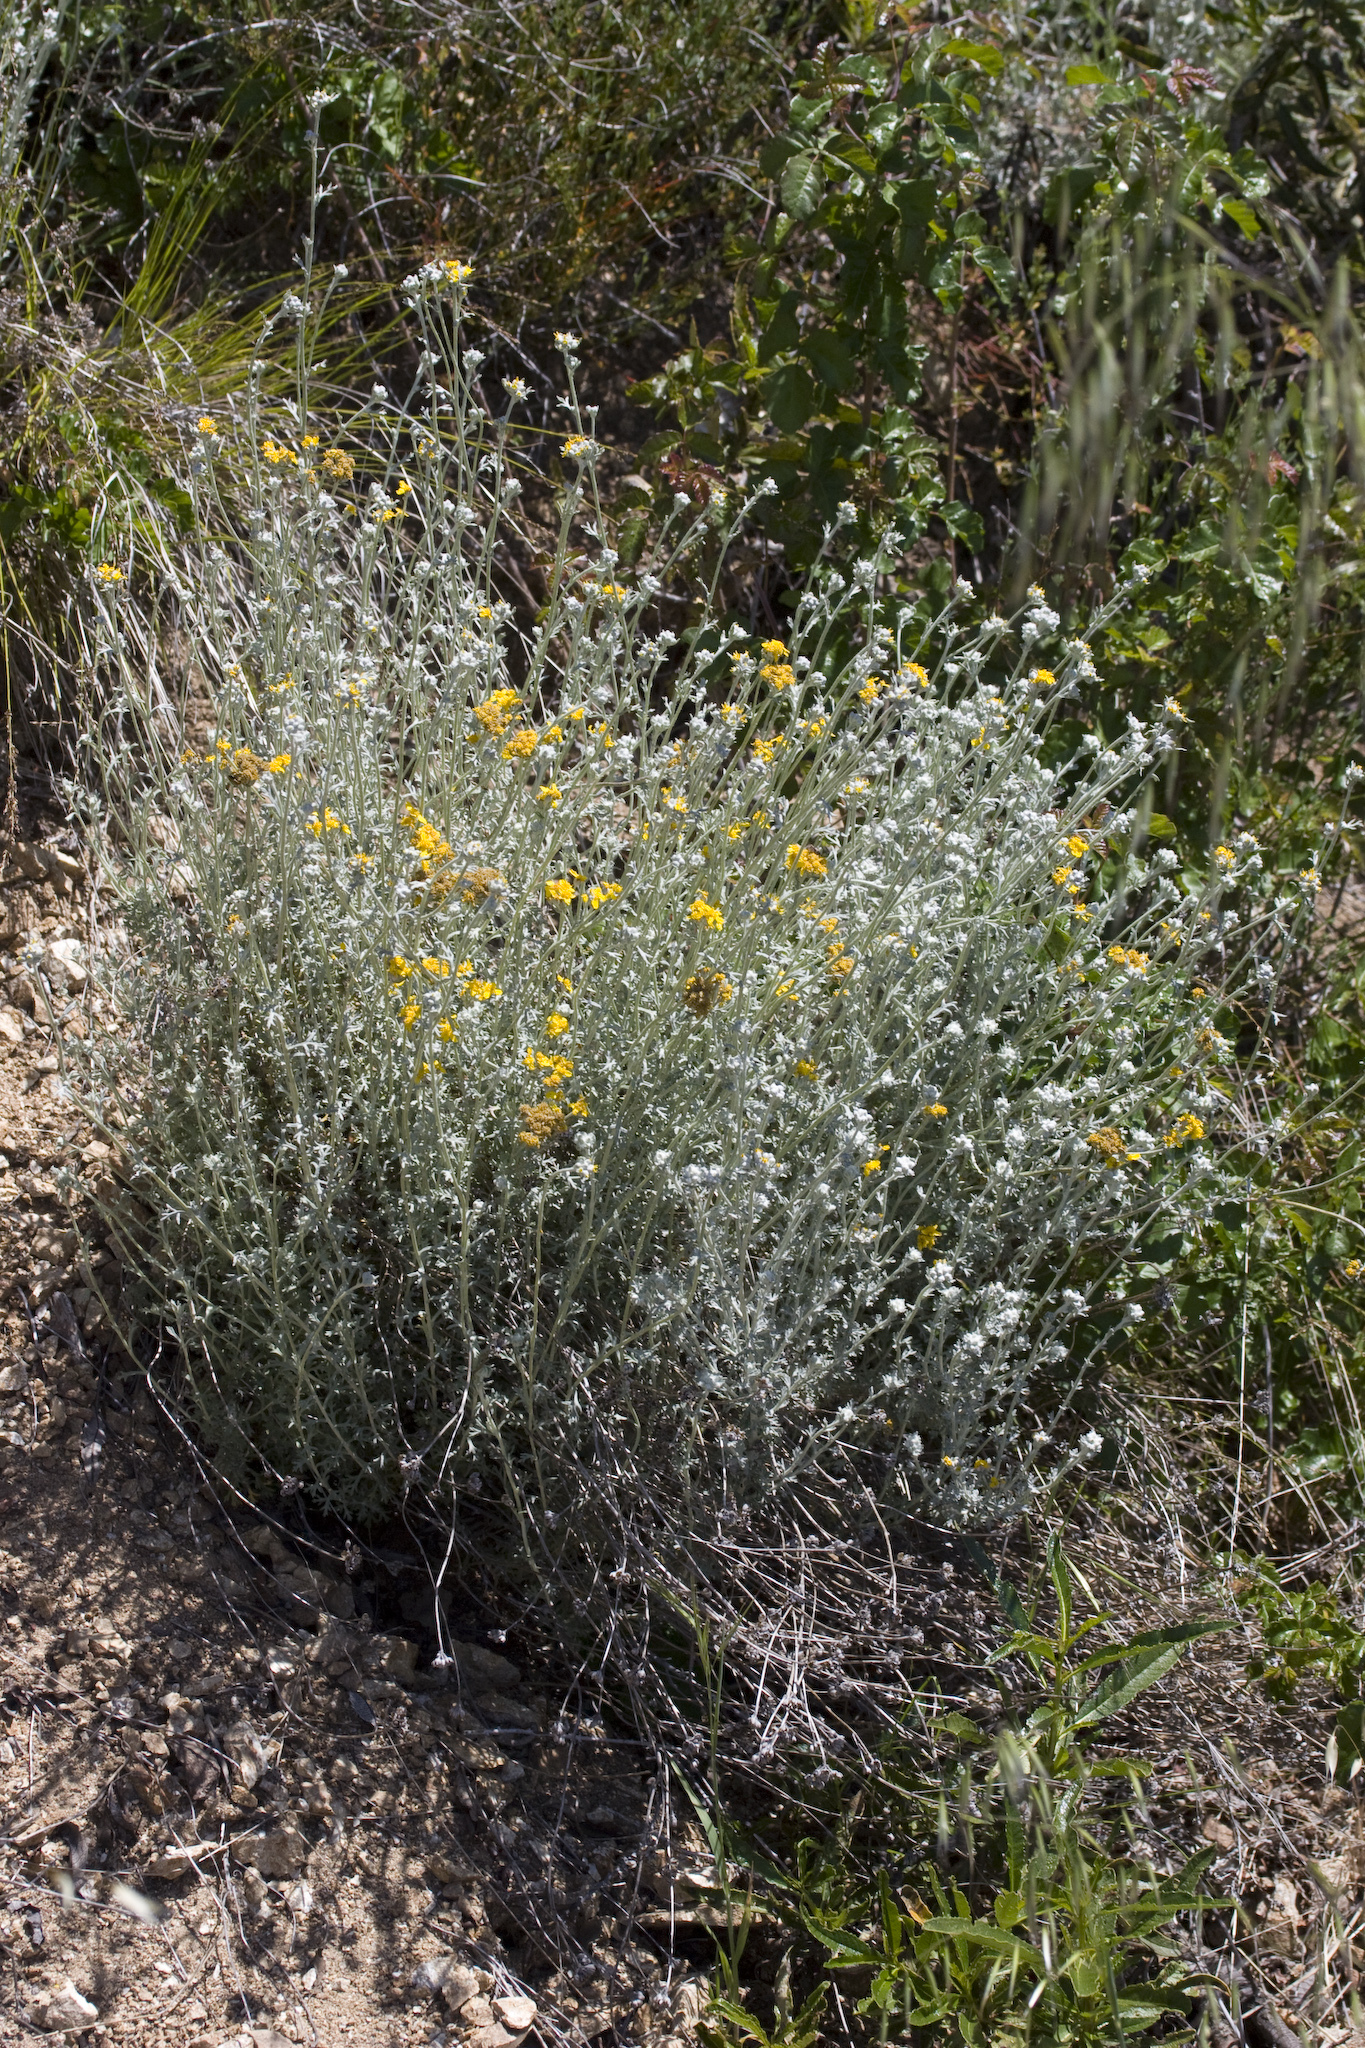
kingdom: Plantae
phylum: Tracheophyta
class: Magnoliopsida
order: Asterales
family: Asteraceae
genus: Eriophyllum
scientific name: Eriophyllum confertiflorum
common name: Golden-yarrow
